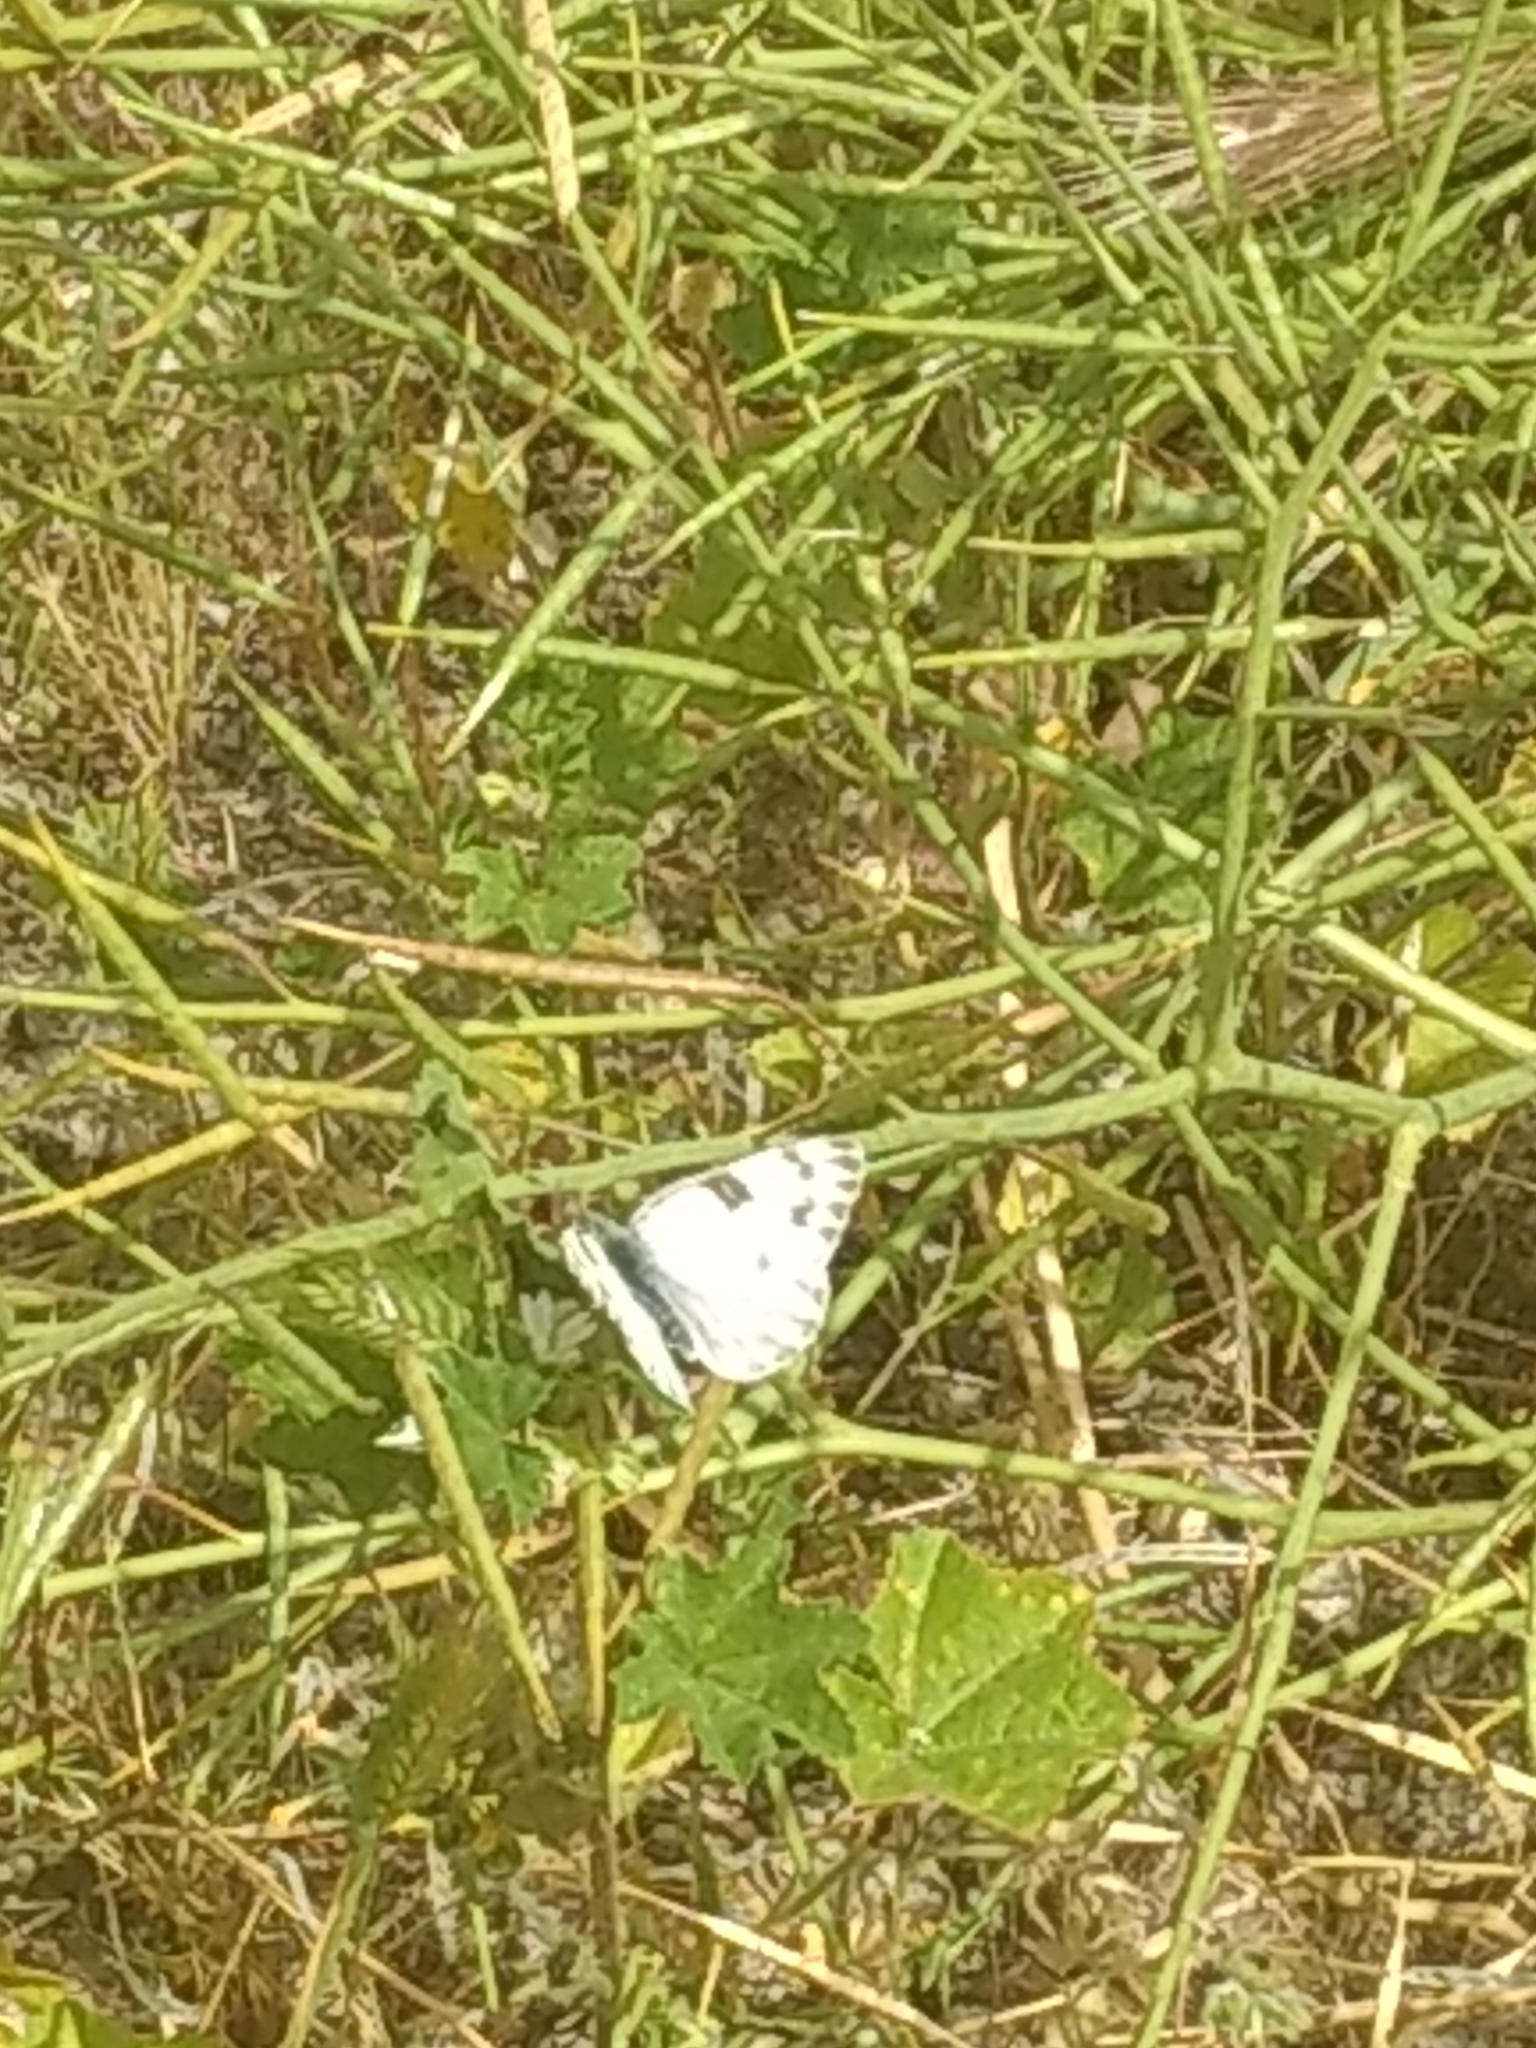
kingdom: Animalia
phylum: Arthropoda
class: Insecta
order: Lepidoptera
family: Pieridae
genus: Pontia
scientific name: Pontia protodice
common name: Checkered white
